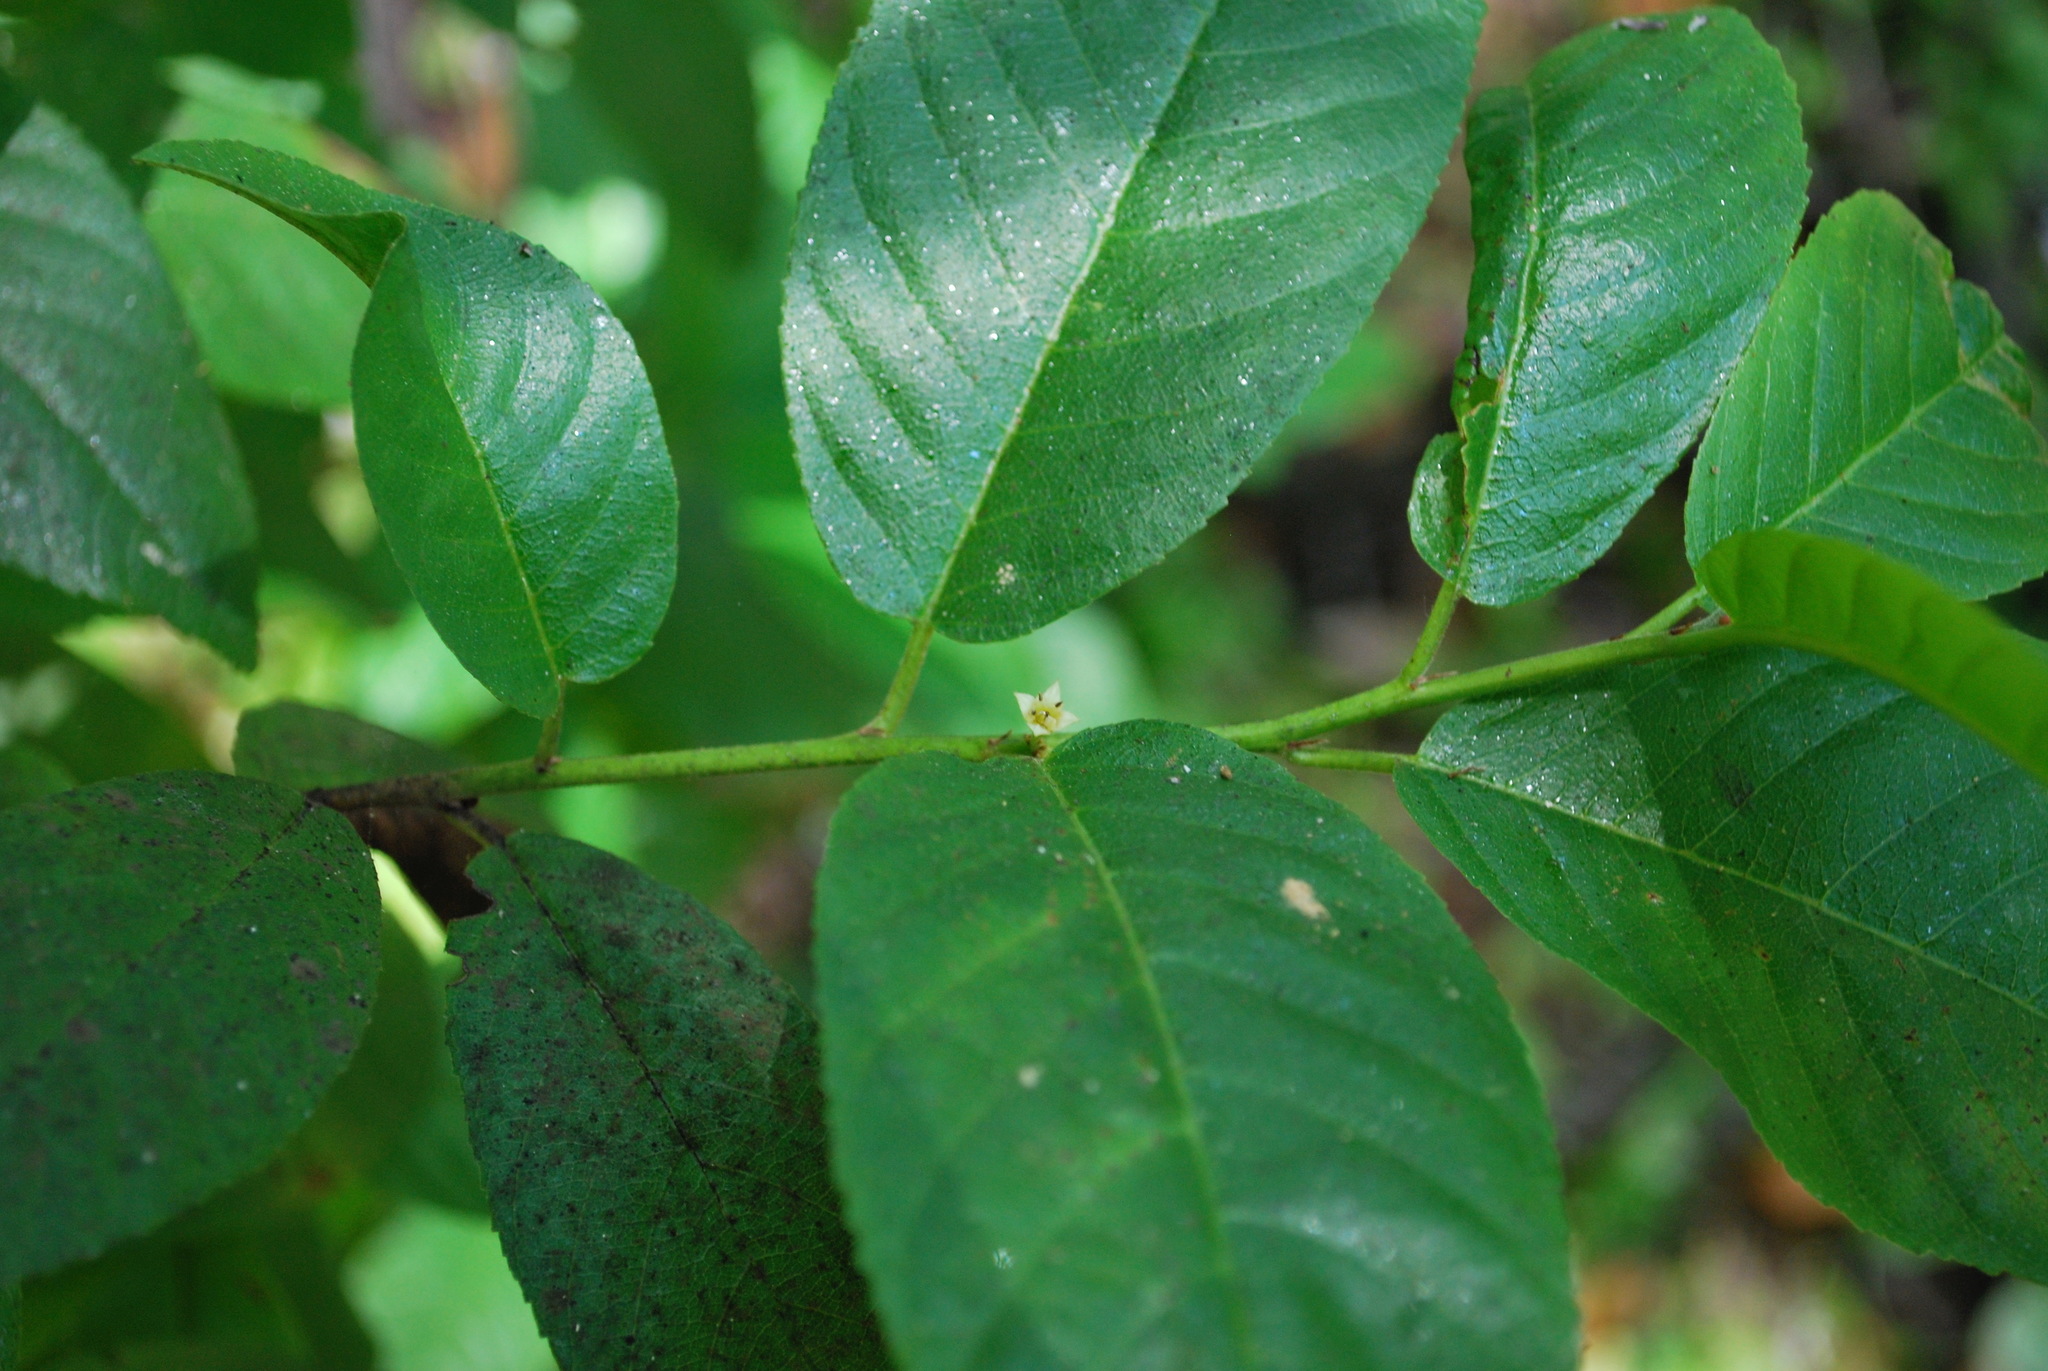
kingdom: Plantae
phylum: Tracheophyta
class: Magnoliopsida
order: Rosales
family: Rhamnaceae
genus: Frangula
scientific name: Frangula californica
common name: California buckthorn
